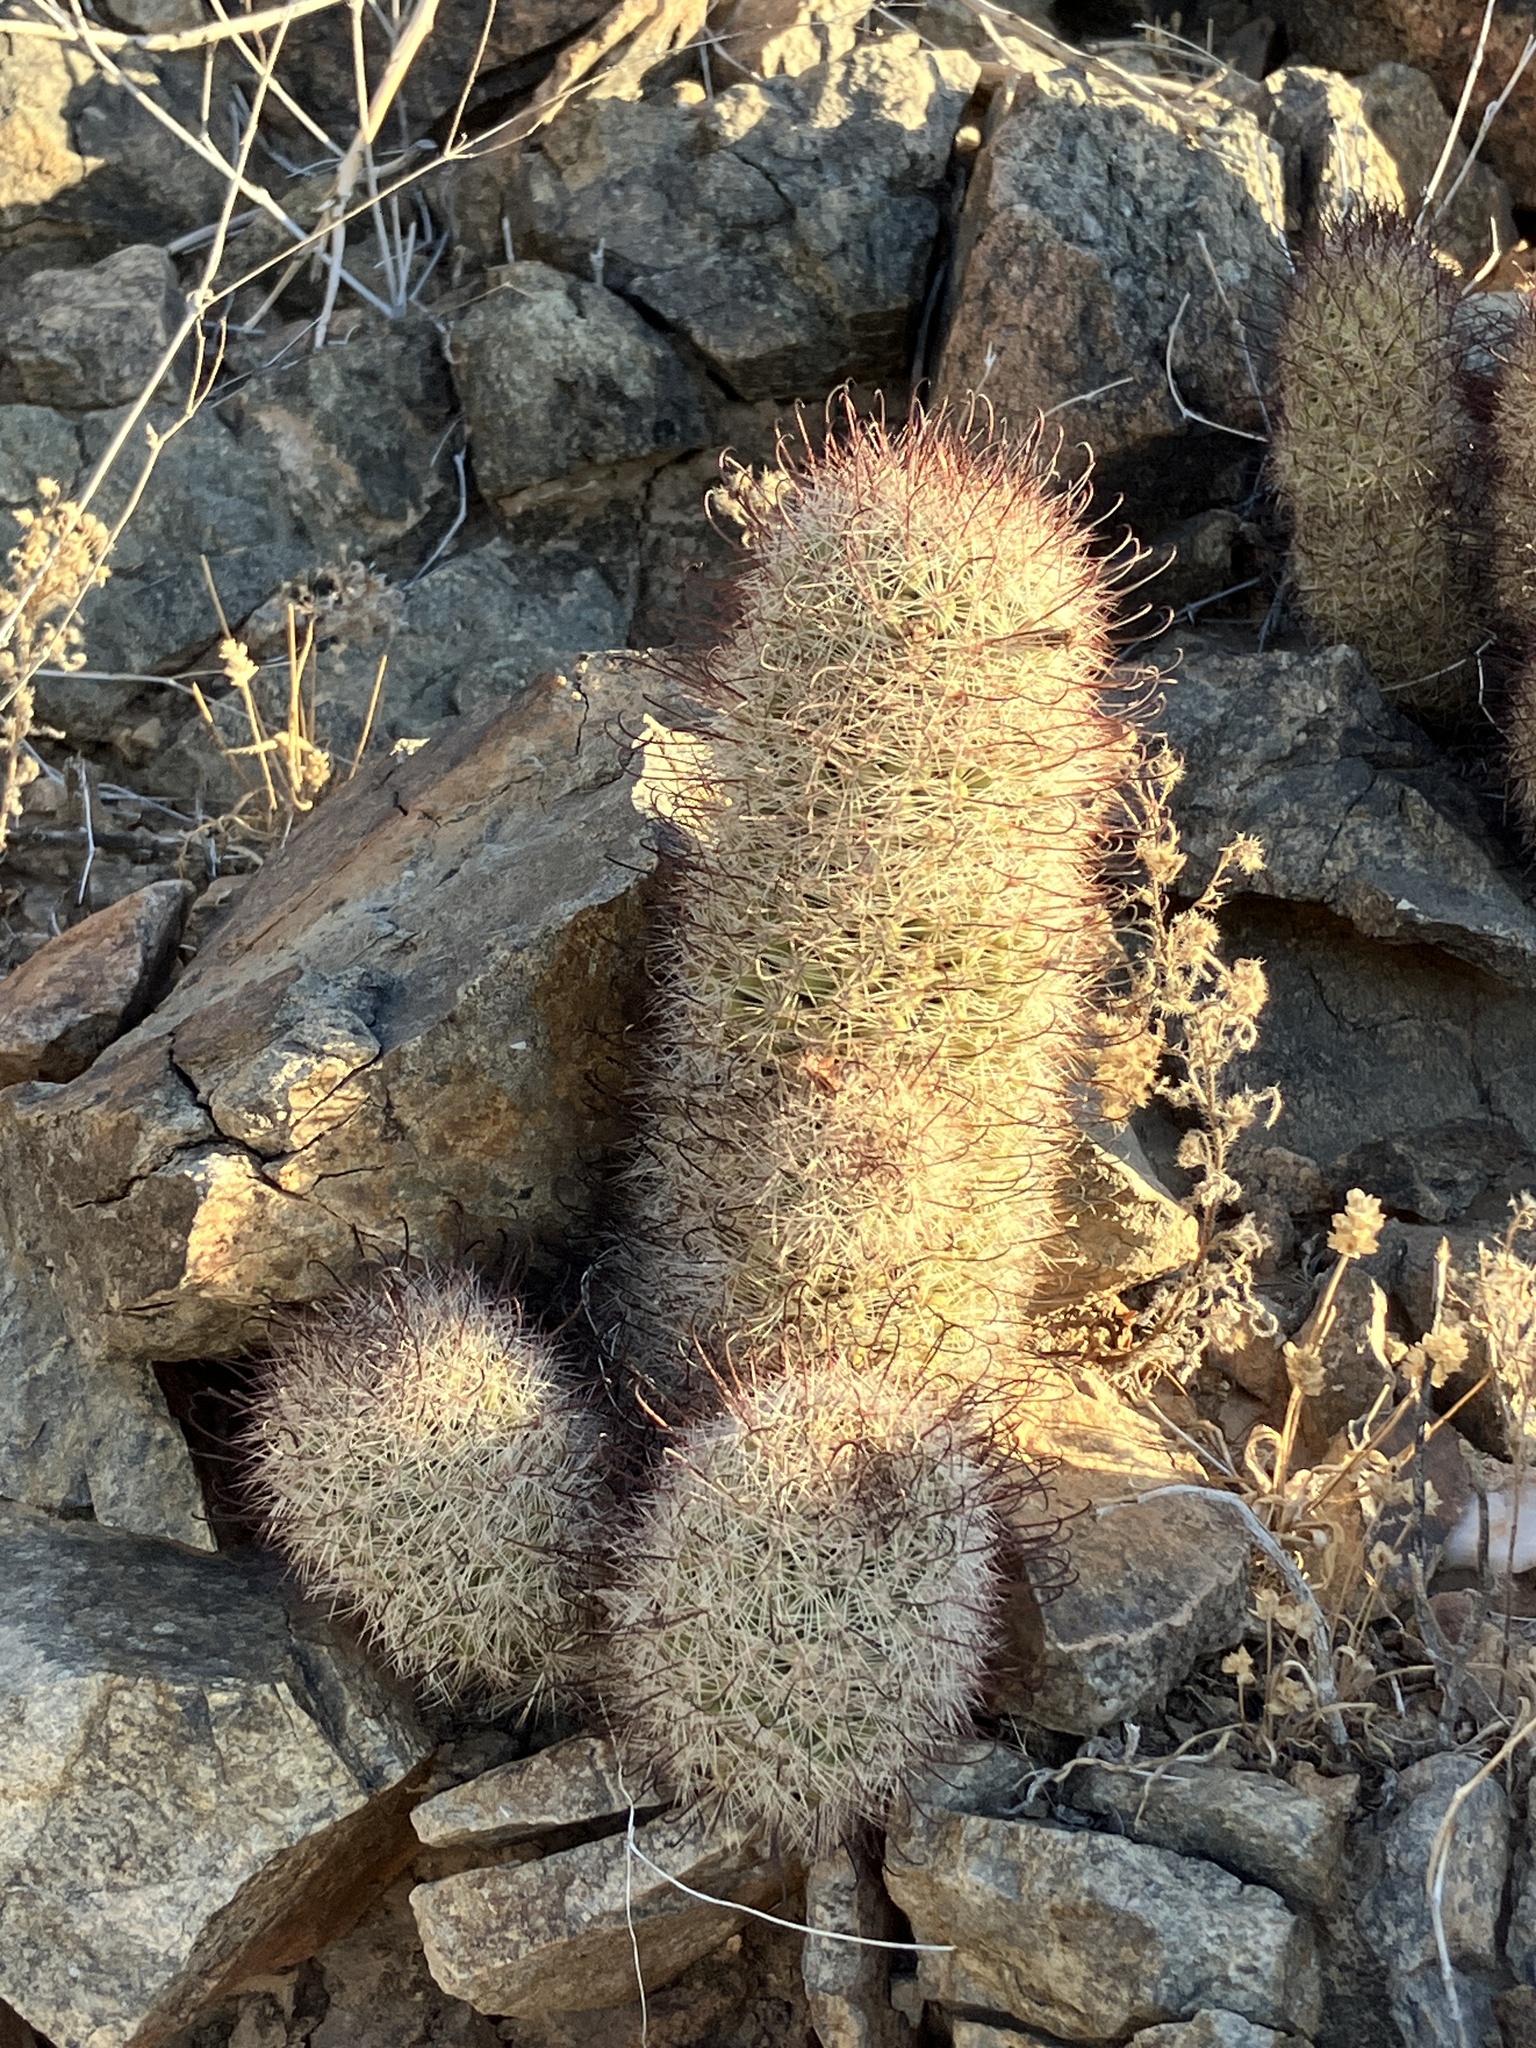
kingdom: Plantae
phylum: Tracheophyta
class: Magnoliopsida
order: Caryophyllales
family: Cactaceae
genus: Cochemiea
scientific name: Cochemiea grahamii
